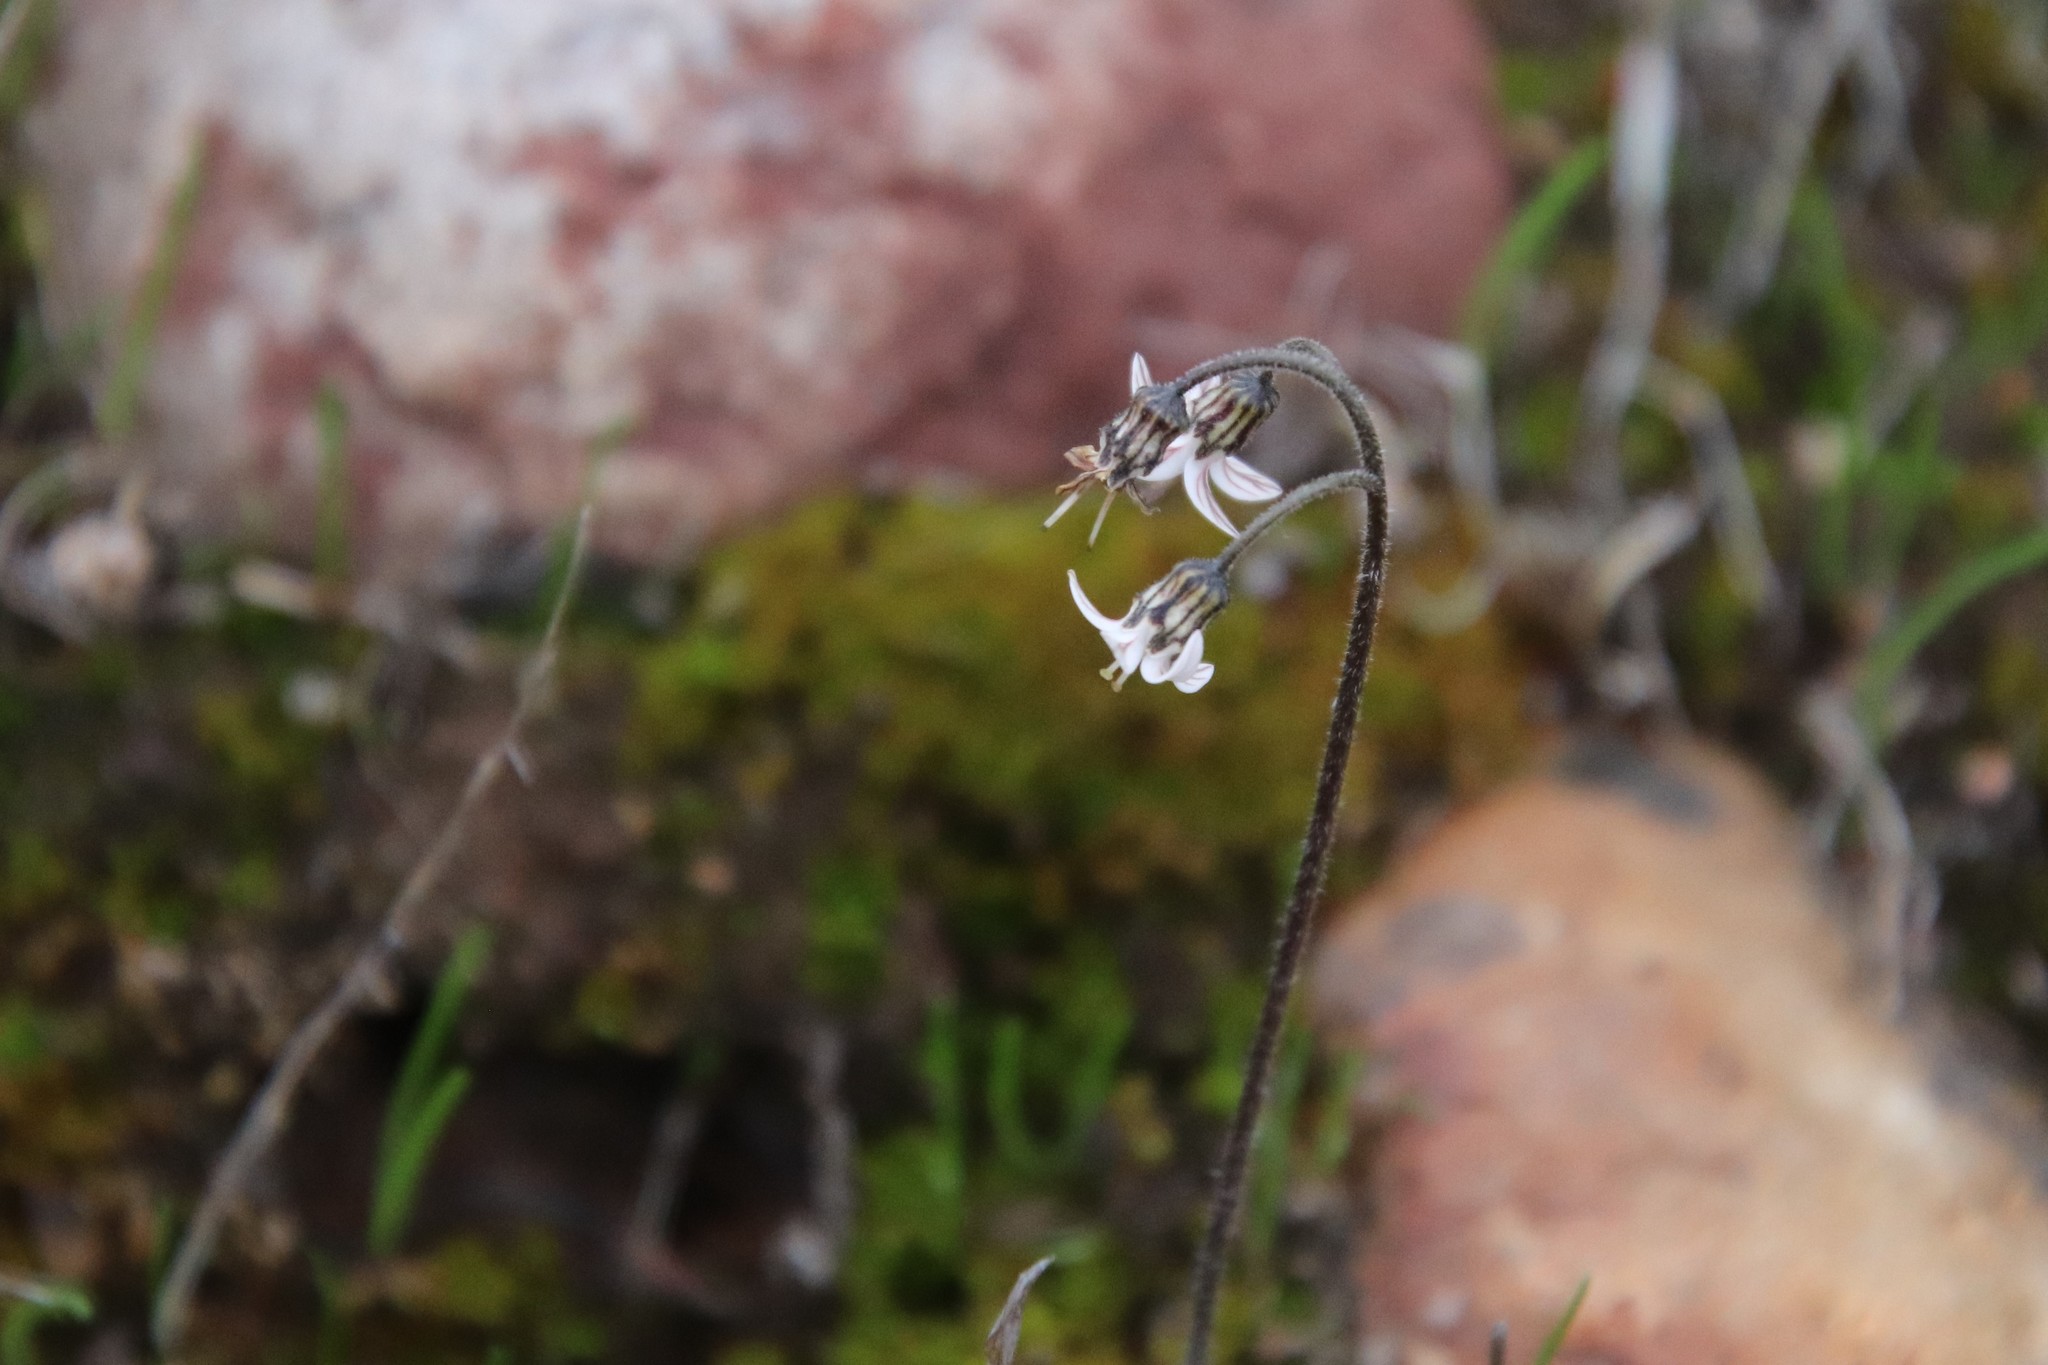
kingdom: Plantae
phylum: Tracheophyta
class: Magnoliopsida
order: Saxifragales
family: Saxifragaceae
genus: Jepsonia
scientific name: Jepsonia parryi
